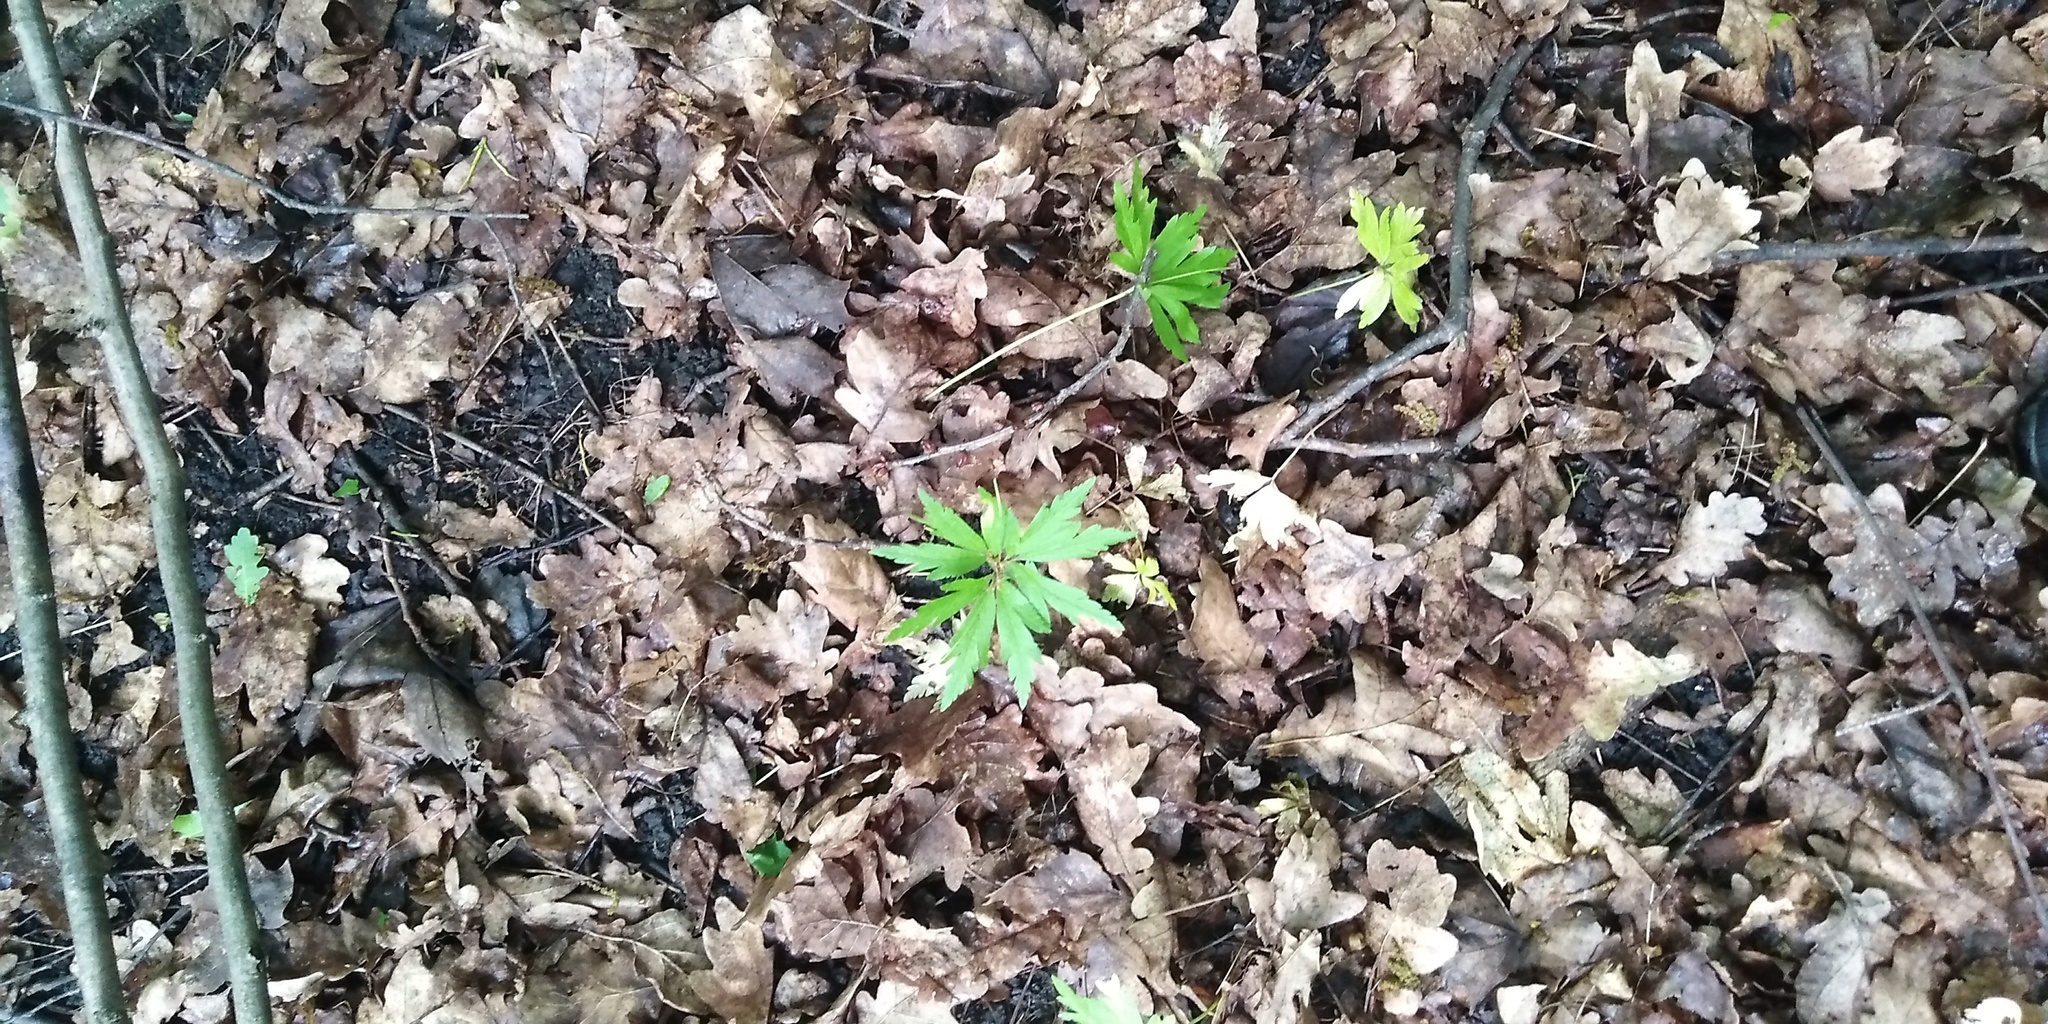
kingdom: Plantae
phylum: Tracheophyta
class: Magnoliopsida
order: Ranunculales
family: Ranunculaceae
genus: Anemone
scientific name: Anemone ranunculoides
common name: Yellow anemone
